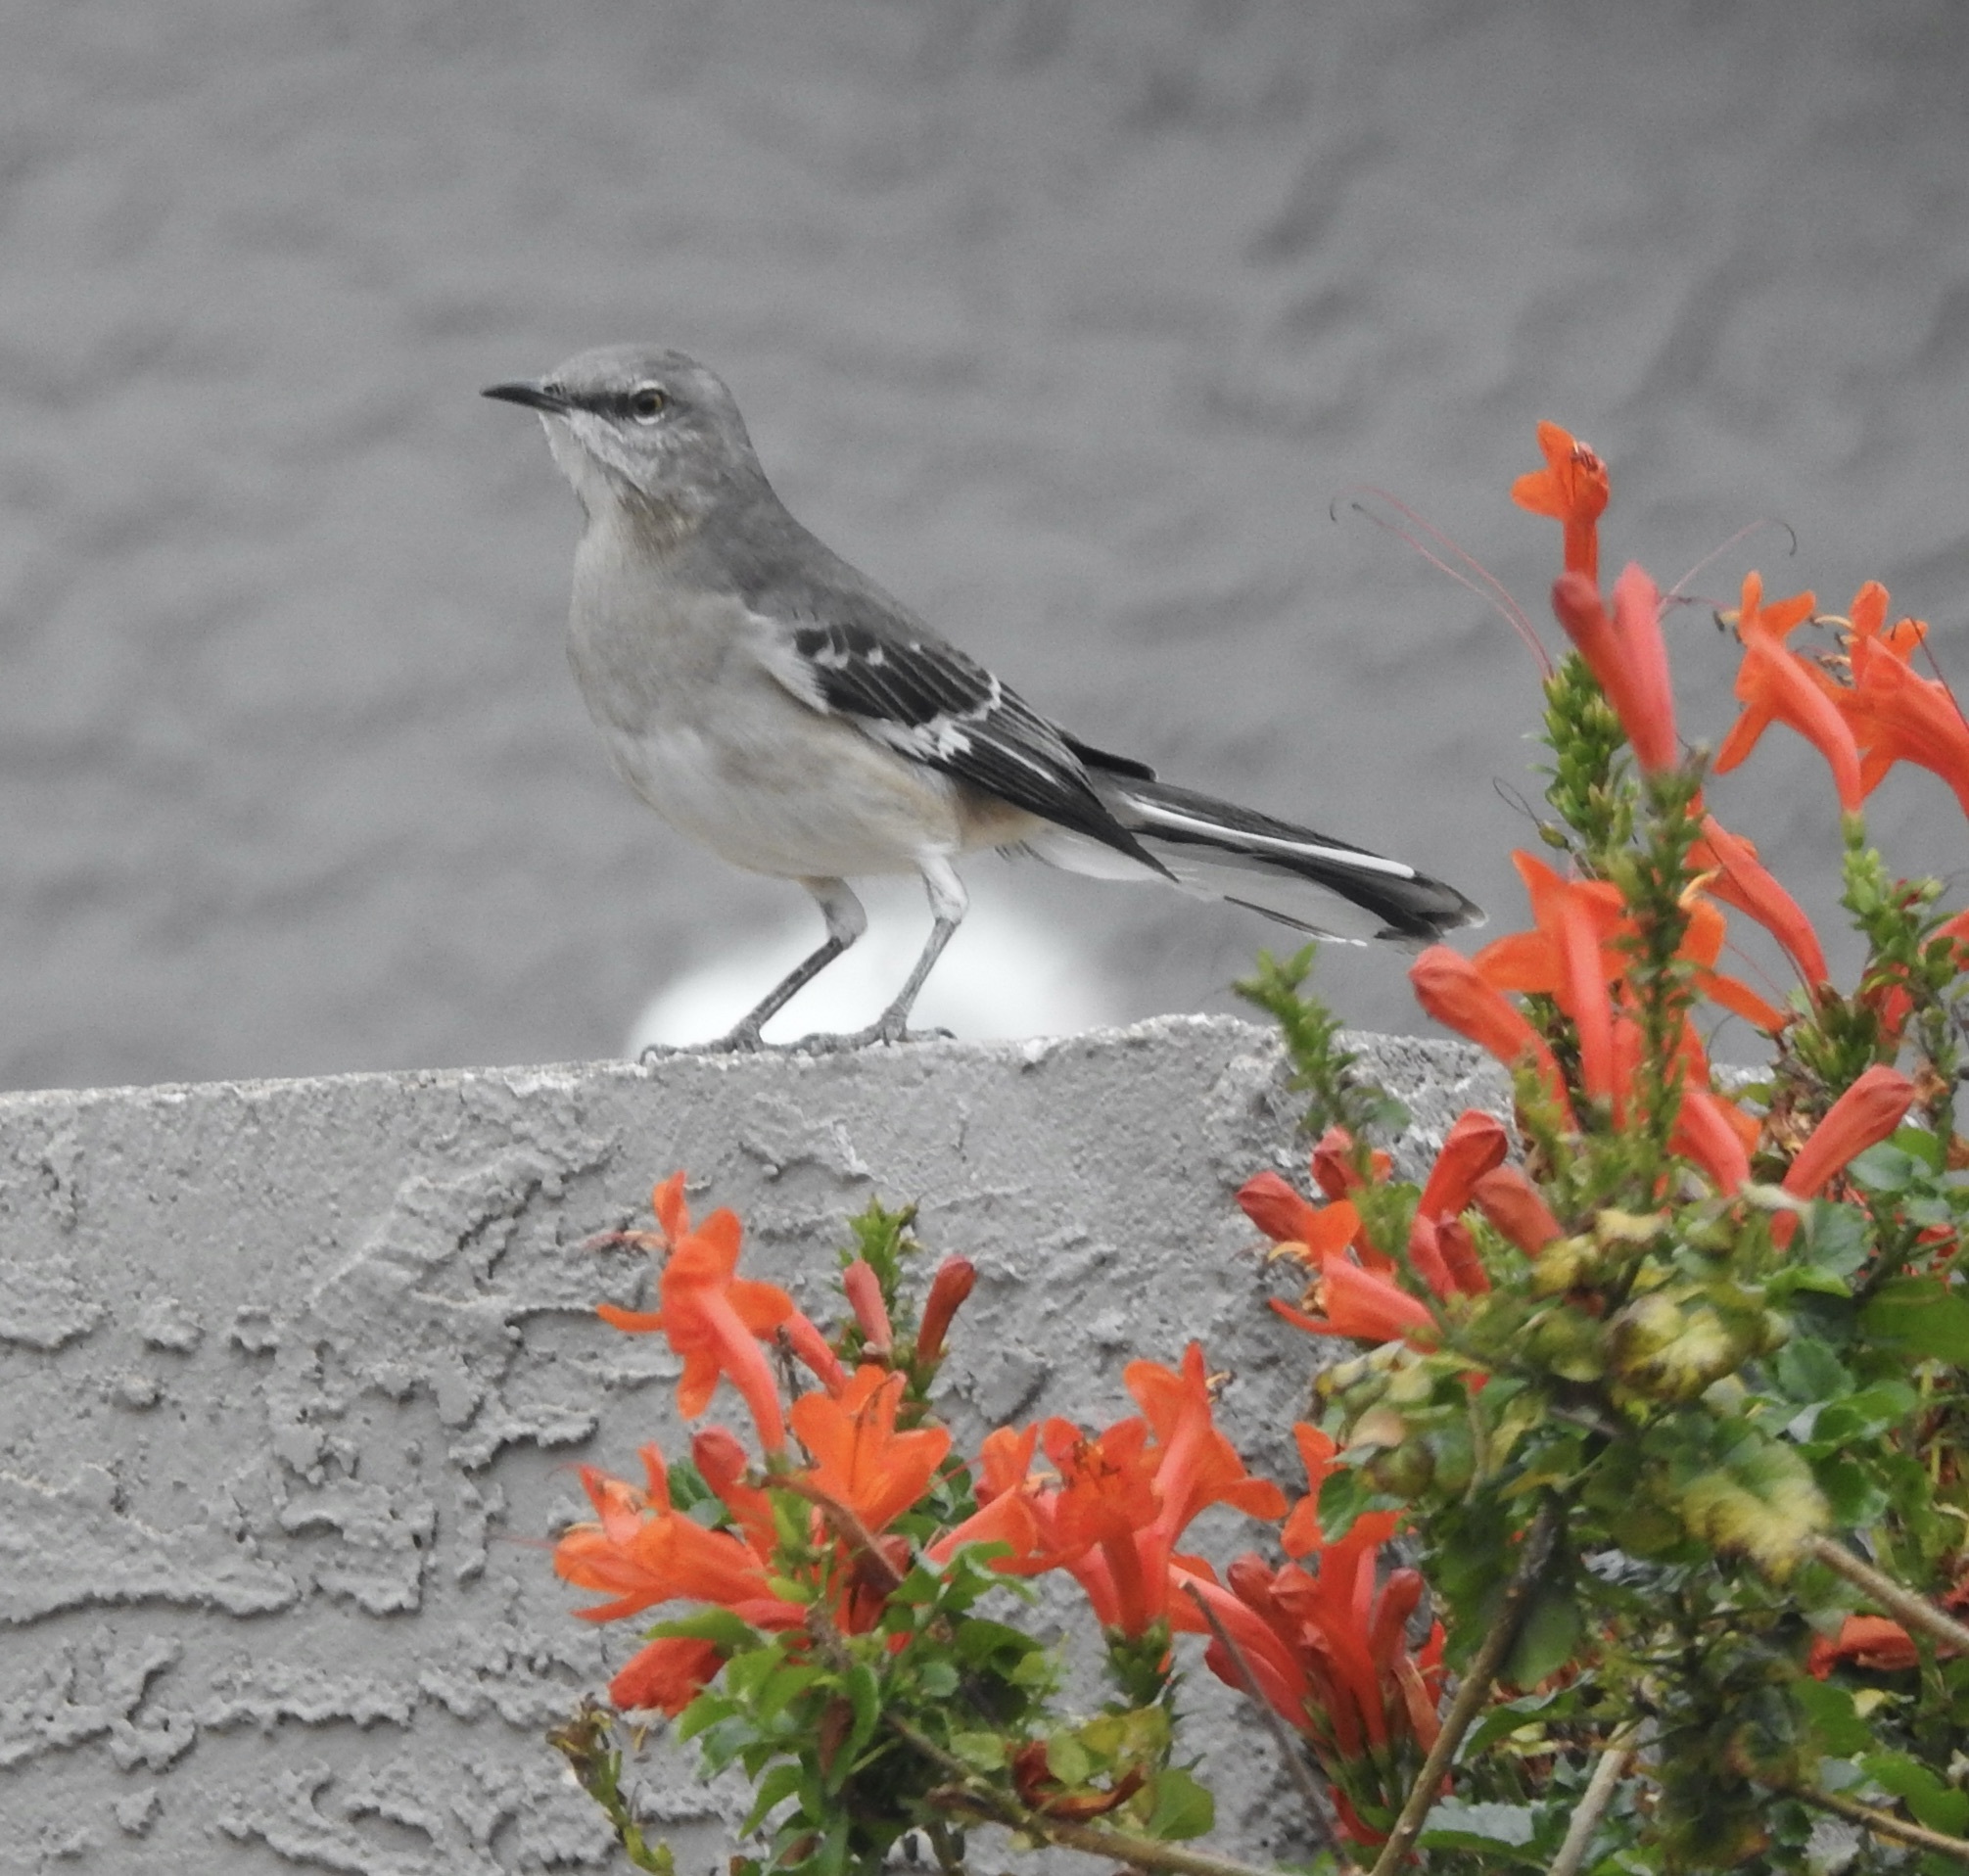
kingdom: Animalia
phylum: Chordata
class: Aves
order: Passeriformes
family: Mimidae
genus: Mimus
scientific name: Mimus polyglottos
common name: Northern mockingbird
